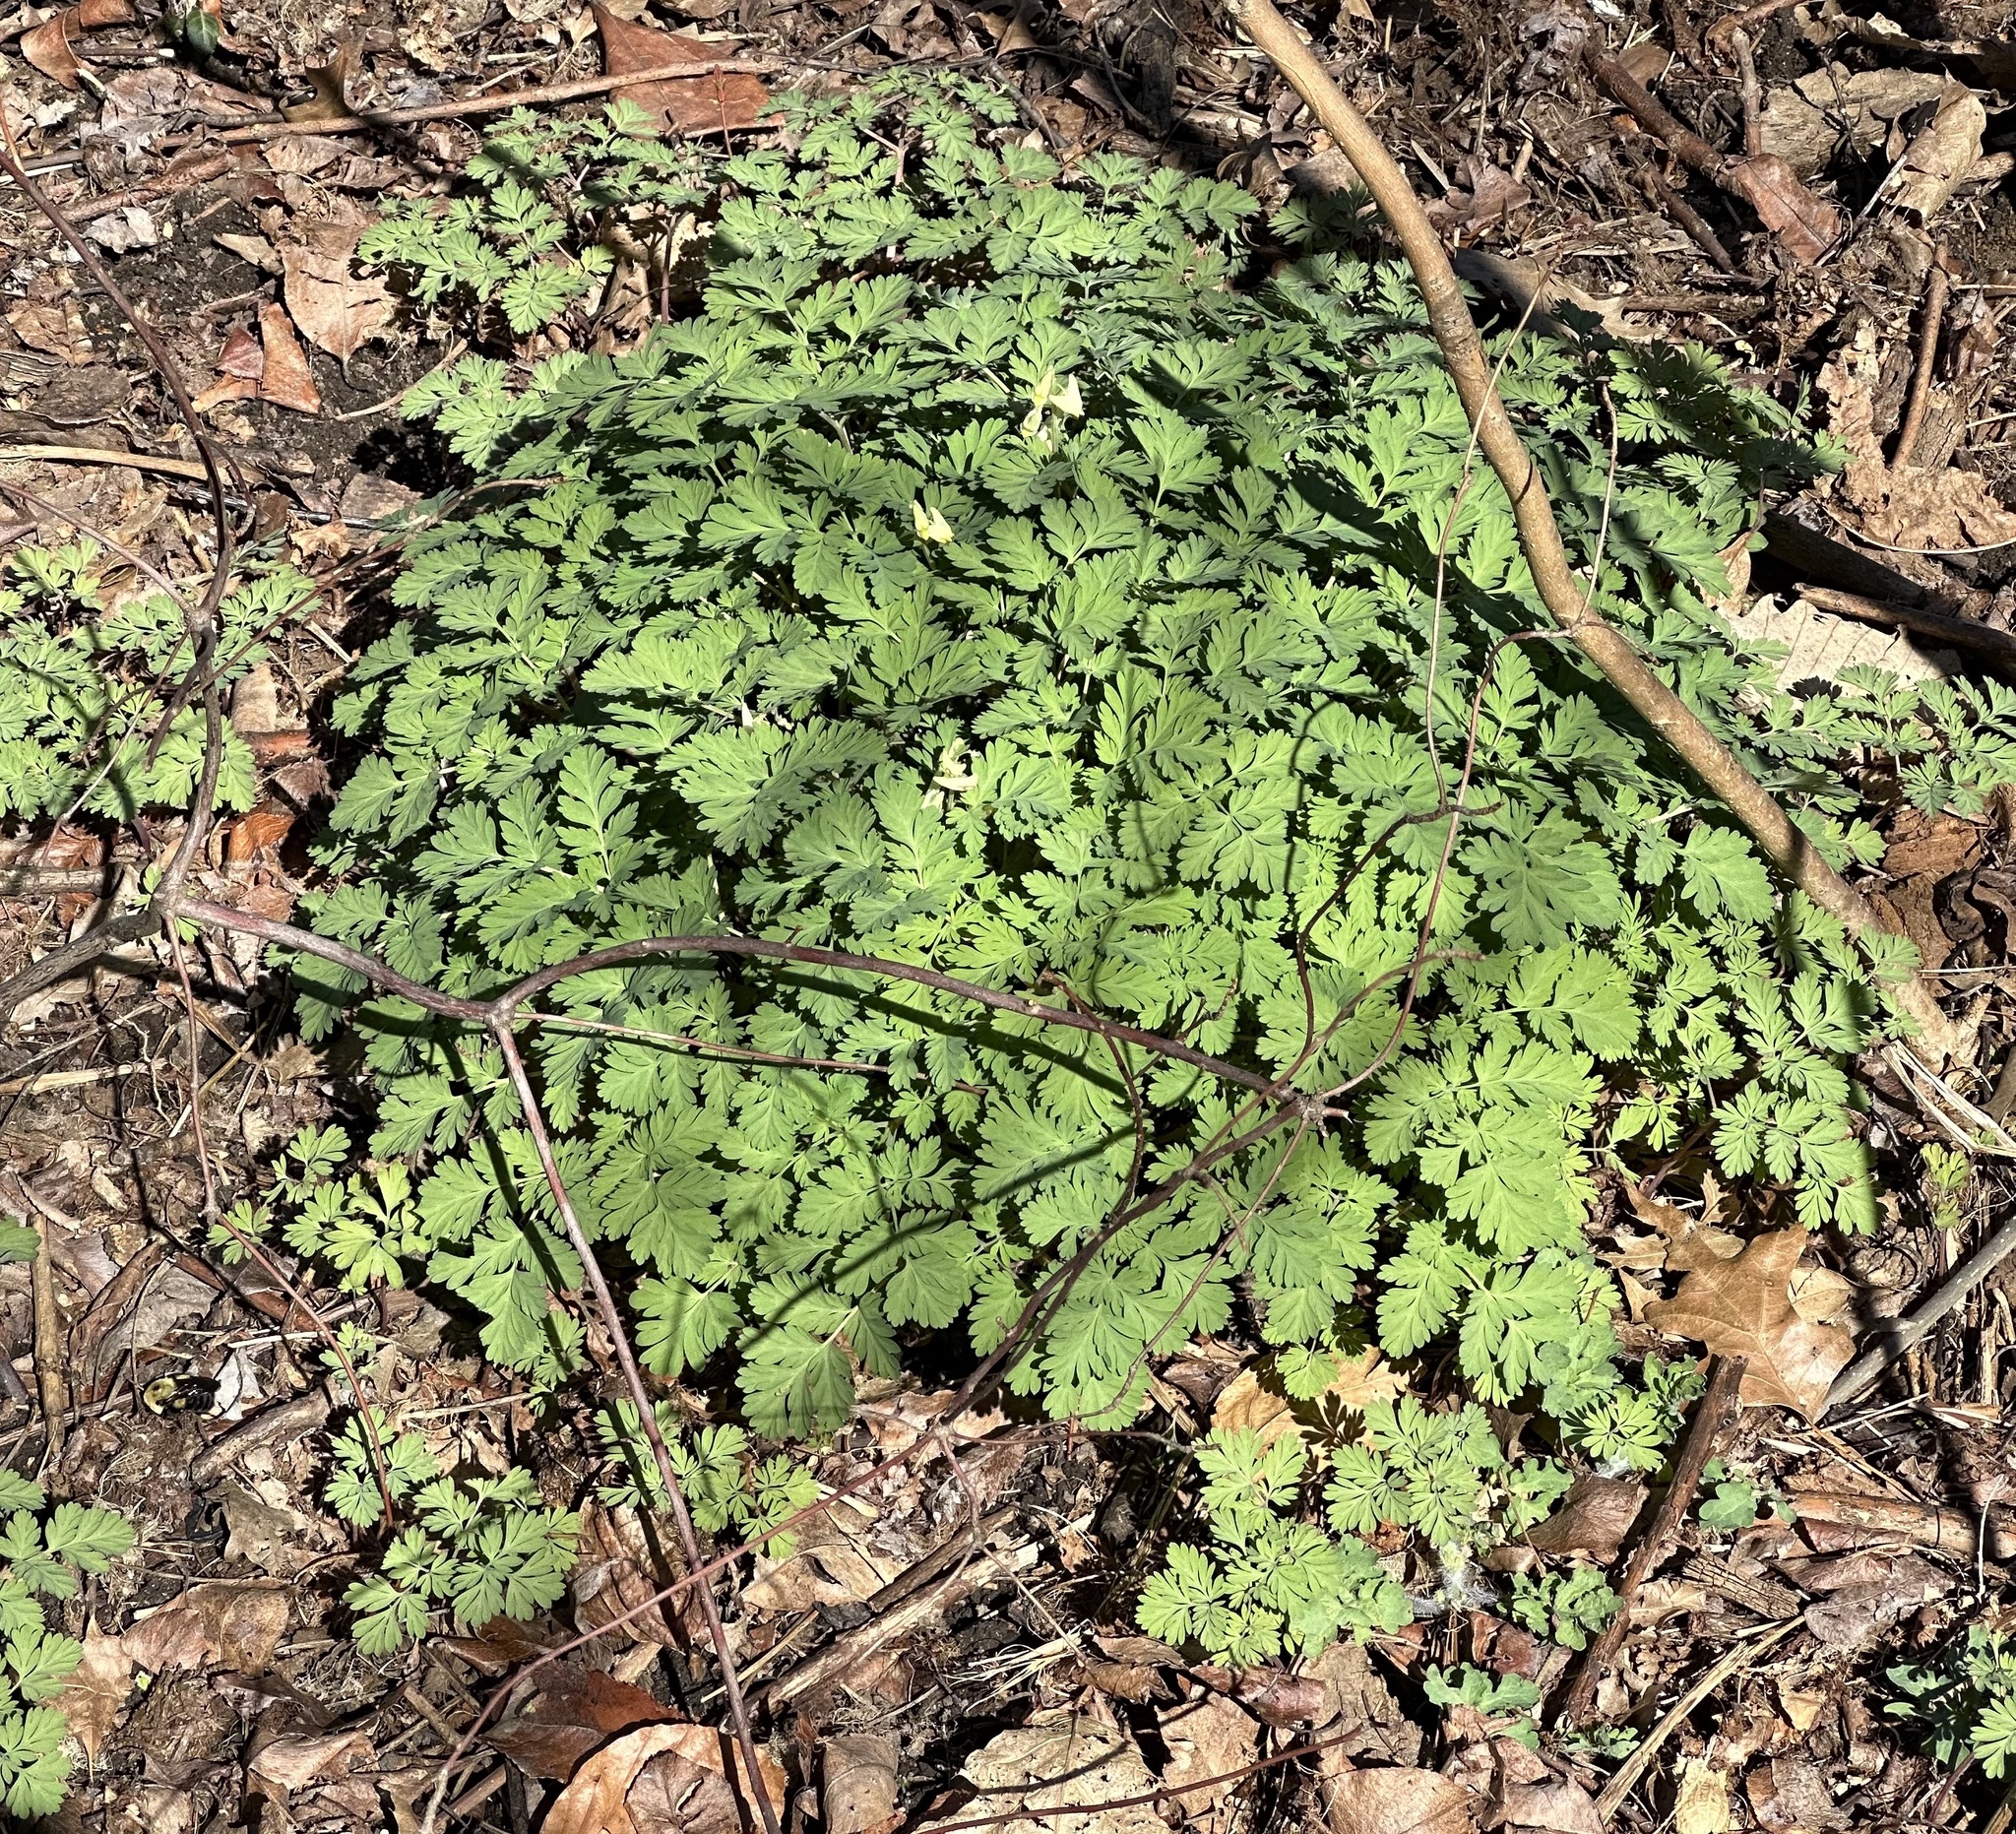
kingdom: Plantae
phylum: Tracheophyta
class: Magnoliopsida
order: Ranunculales
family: Papaveraceae
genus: Dicentra
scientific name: Dicentra cucullaria
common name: Dutchman's breeches
